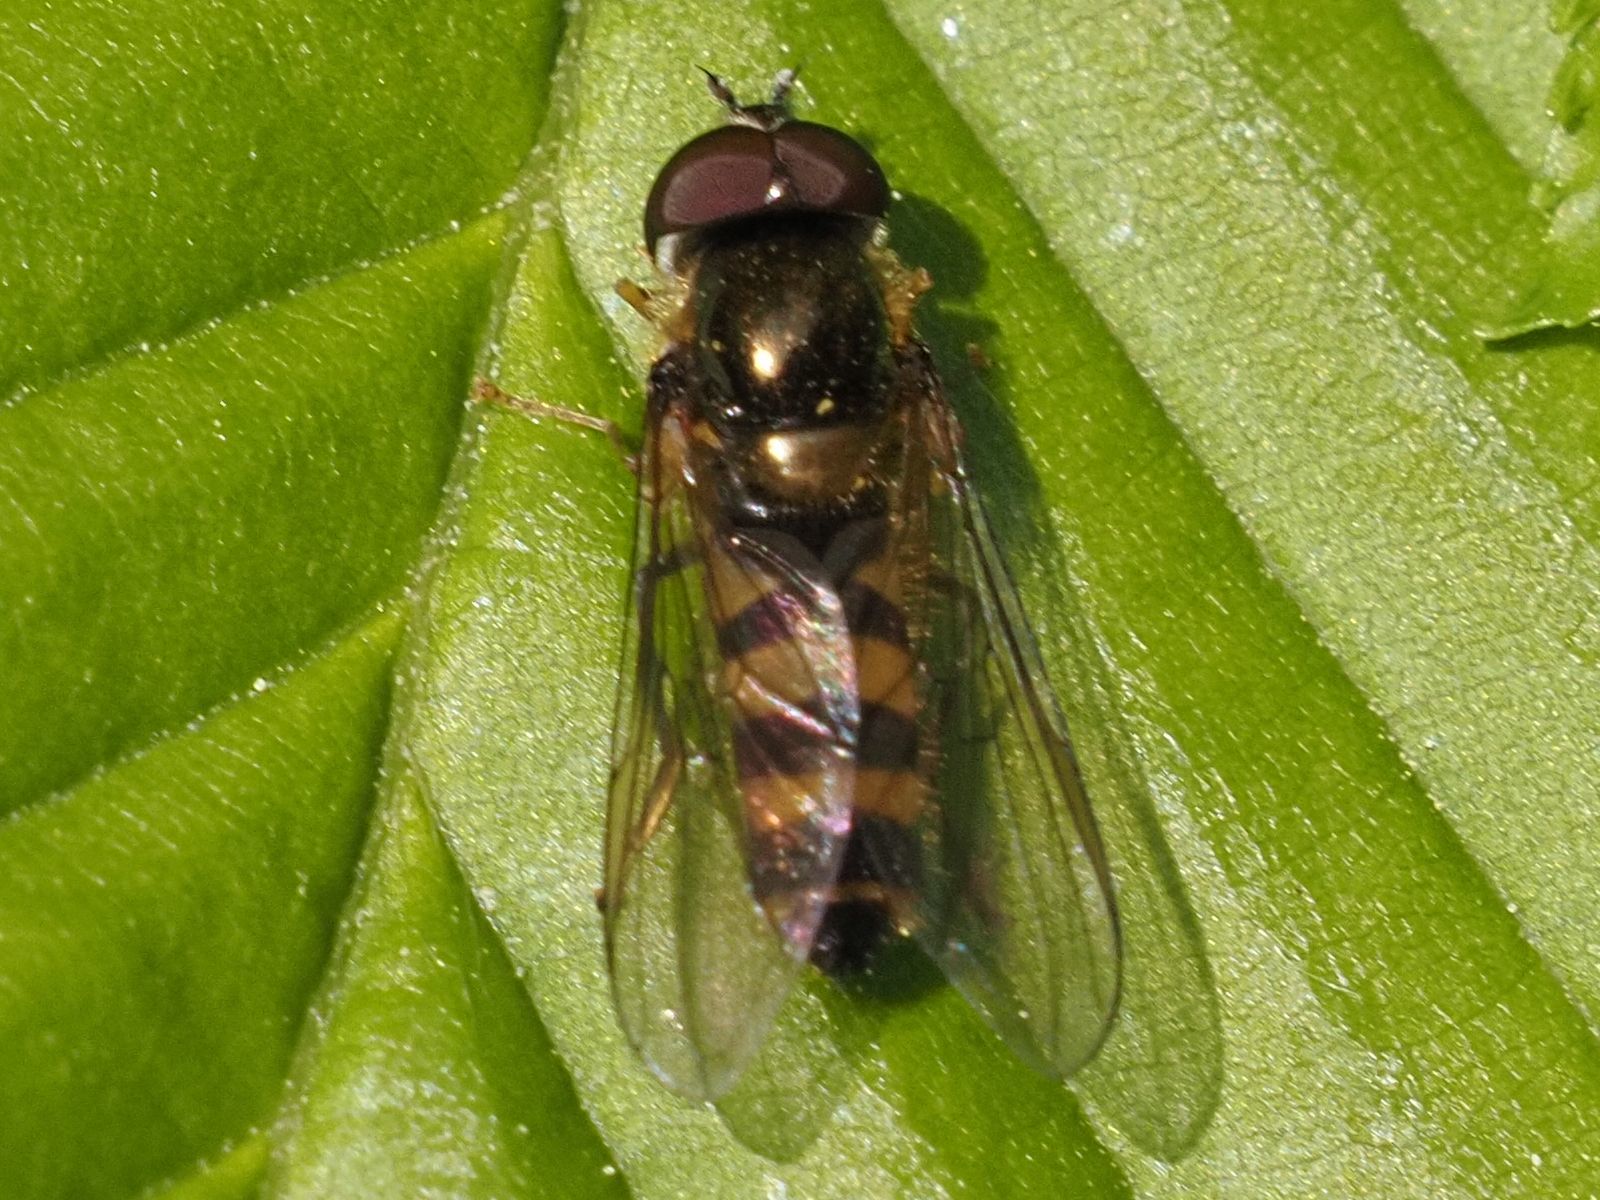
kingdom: Animalia
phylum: Arthropoda
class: Insecta
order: Diptera
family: Syrphidae
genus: Fagisyrphus
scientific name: Fagisyrphus cincta
